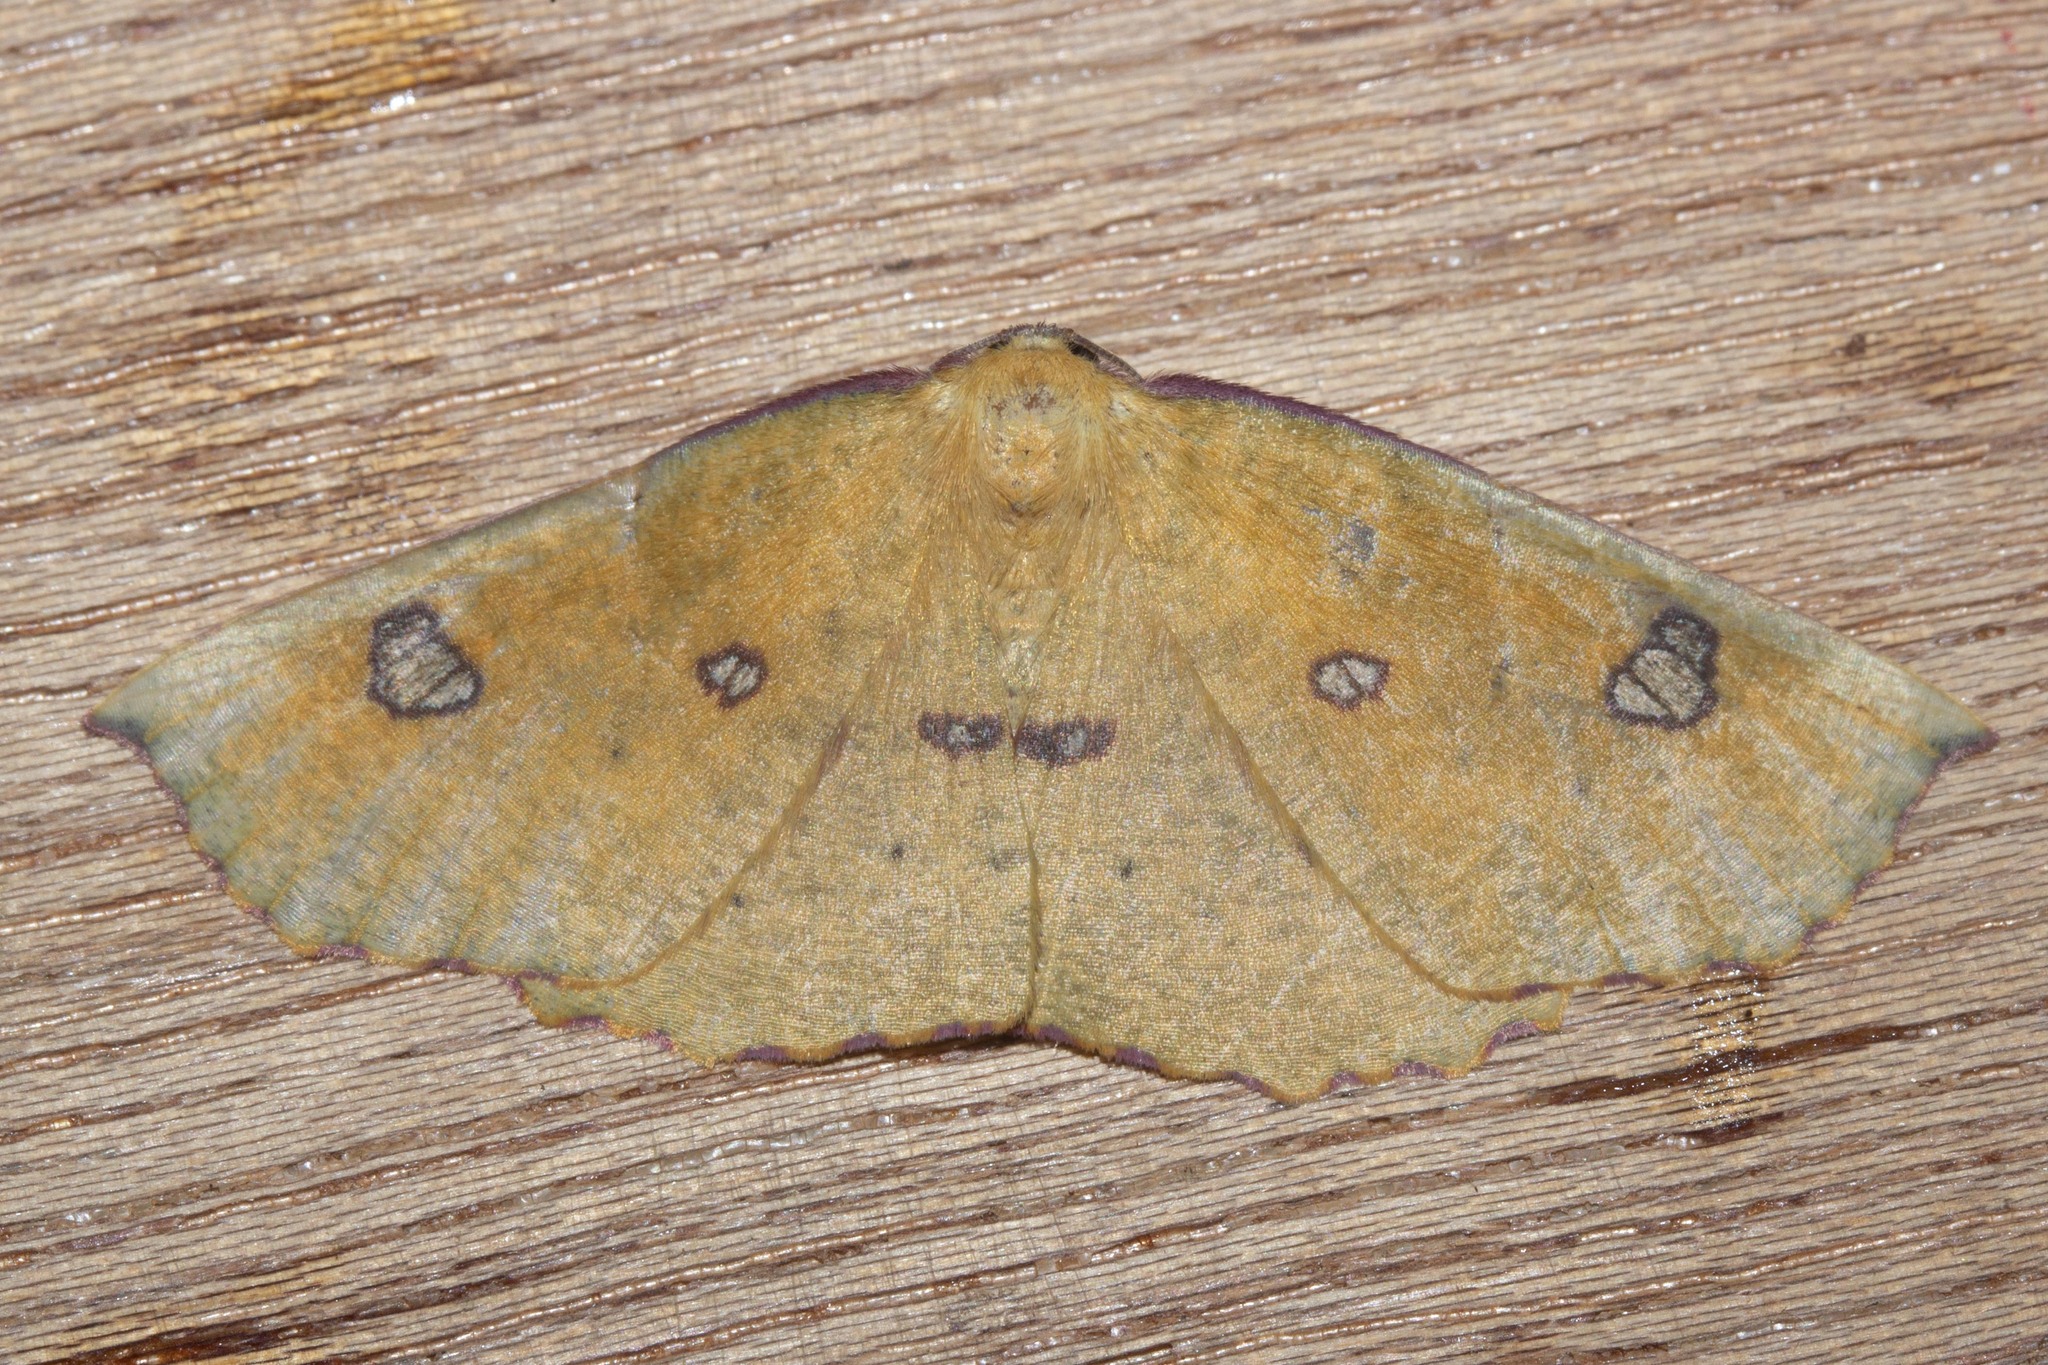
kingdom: Animalia
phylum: Arthropoda
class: Insecta
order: Lepidoptera
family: Geometridae
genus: Xyridacma
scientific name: Xyridacma alectoraria
